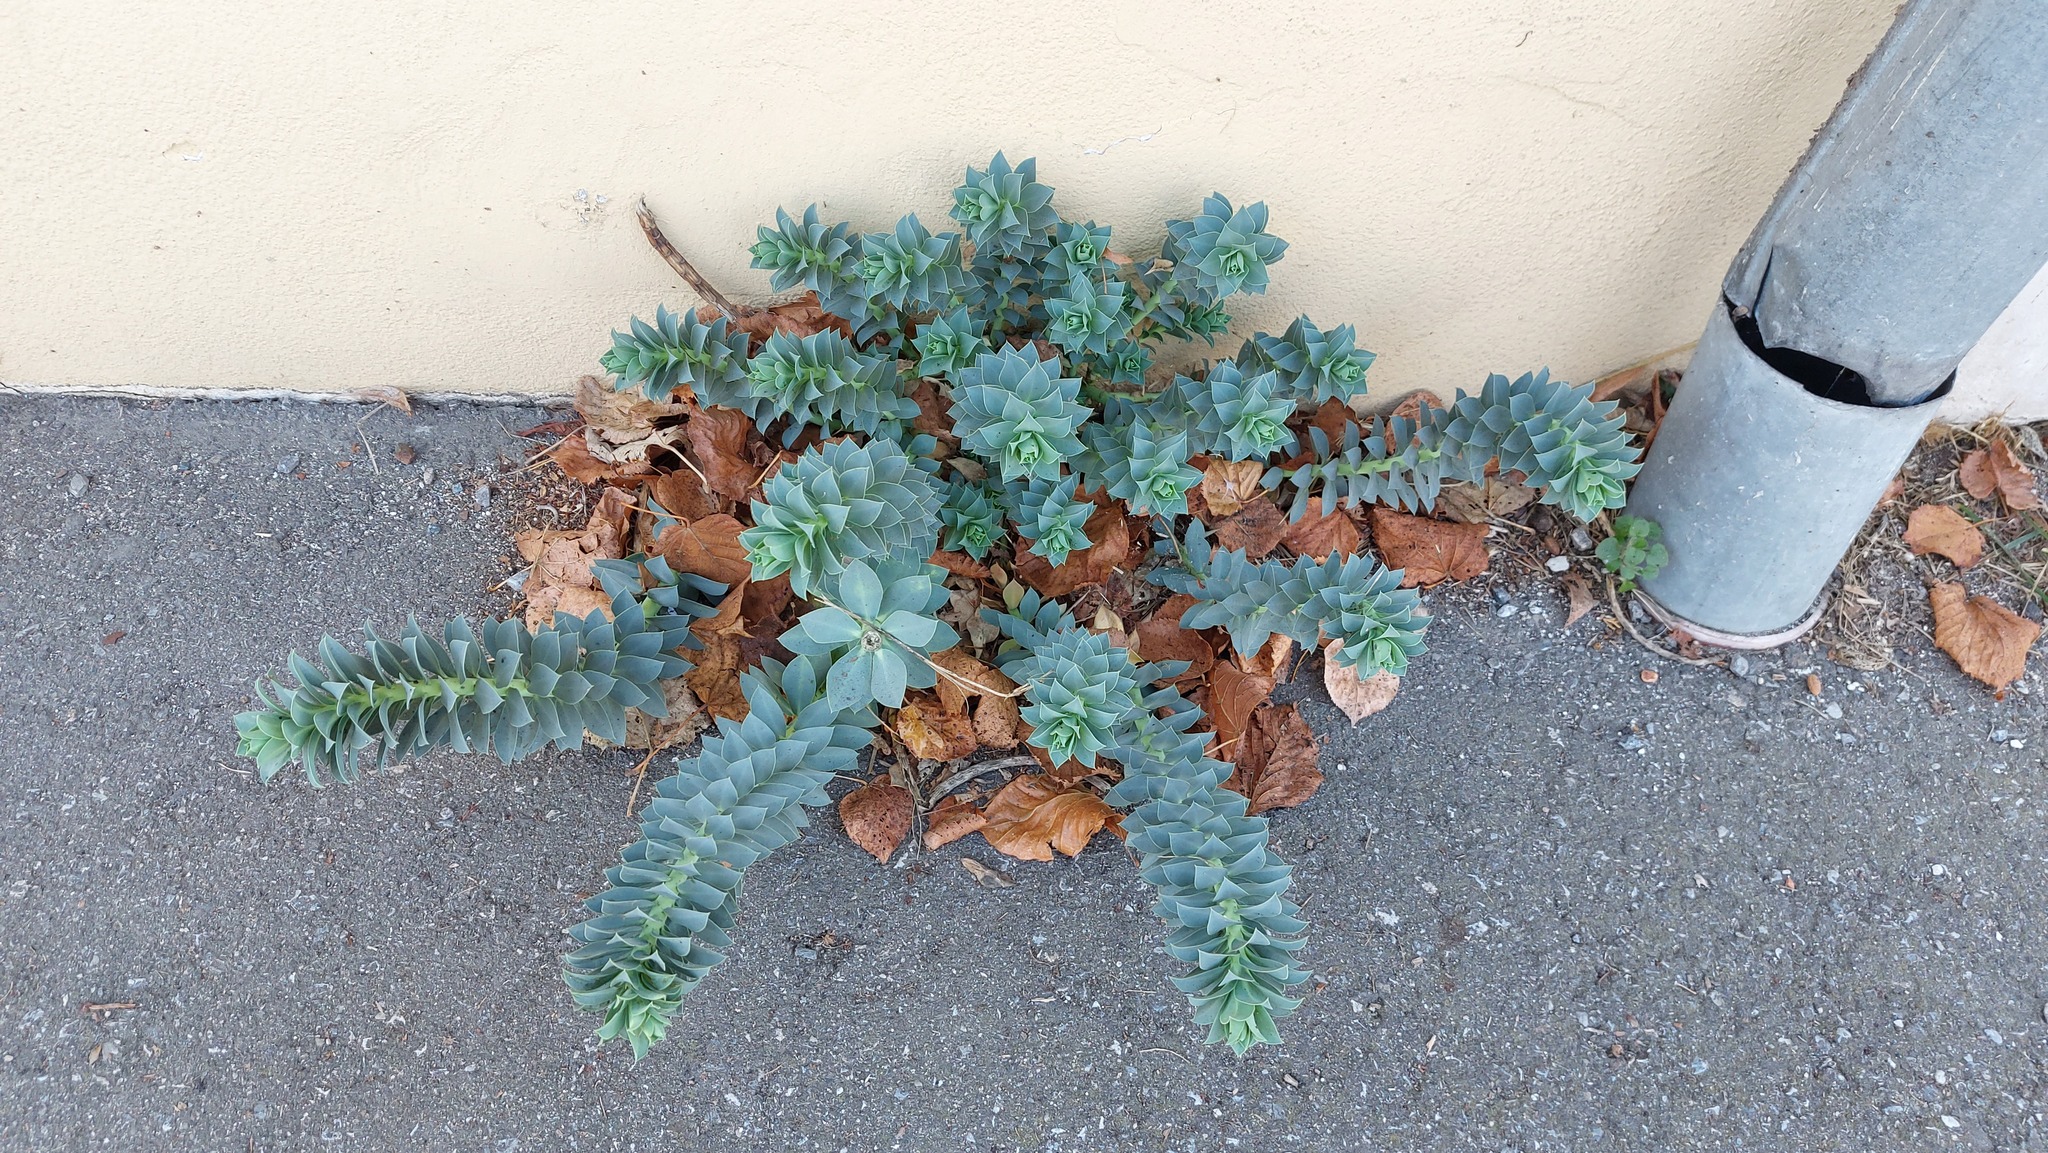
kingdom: Plantae
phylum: Tracheophyta
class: Magnoliopsida
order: Malpighiales
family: Euphorbiaceae
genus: Euphorbia
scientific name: Euphorbia myrsinites
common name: Myrtle spurge
